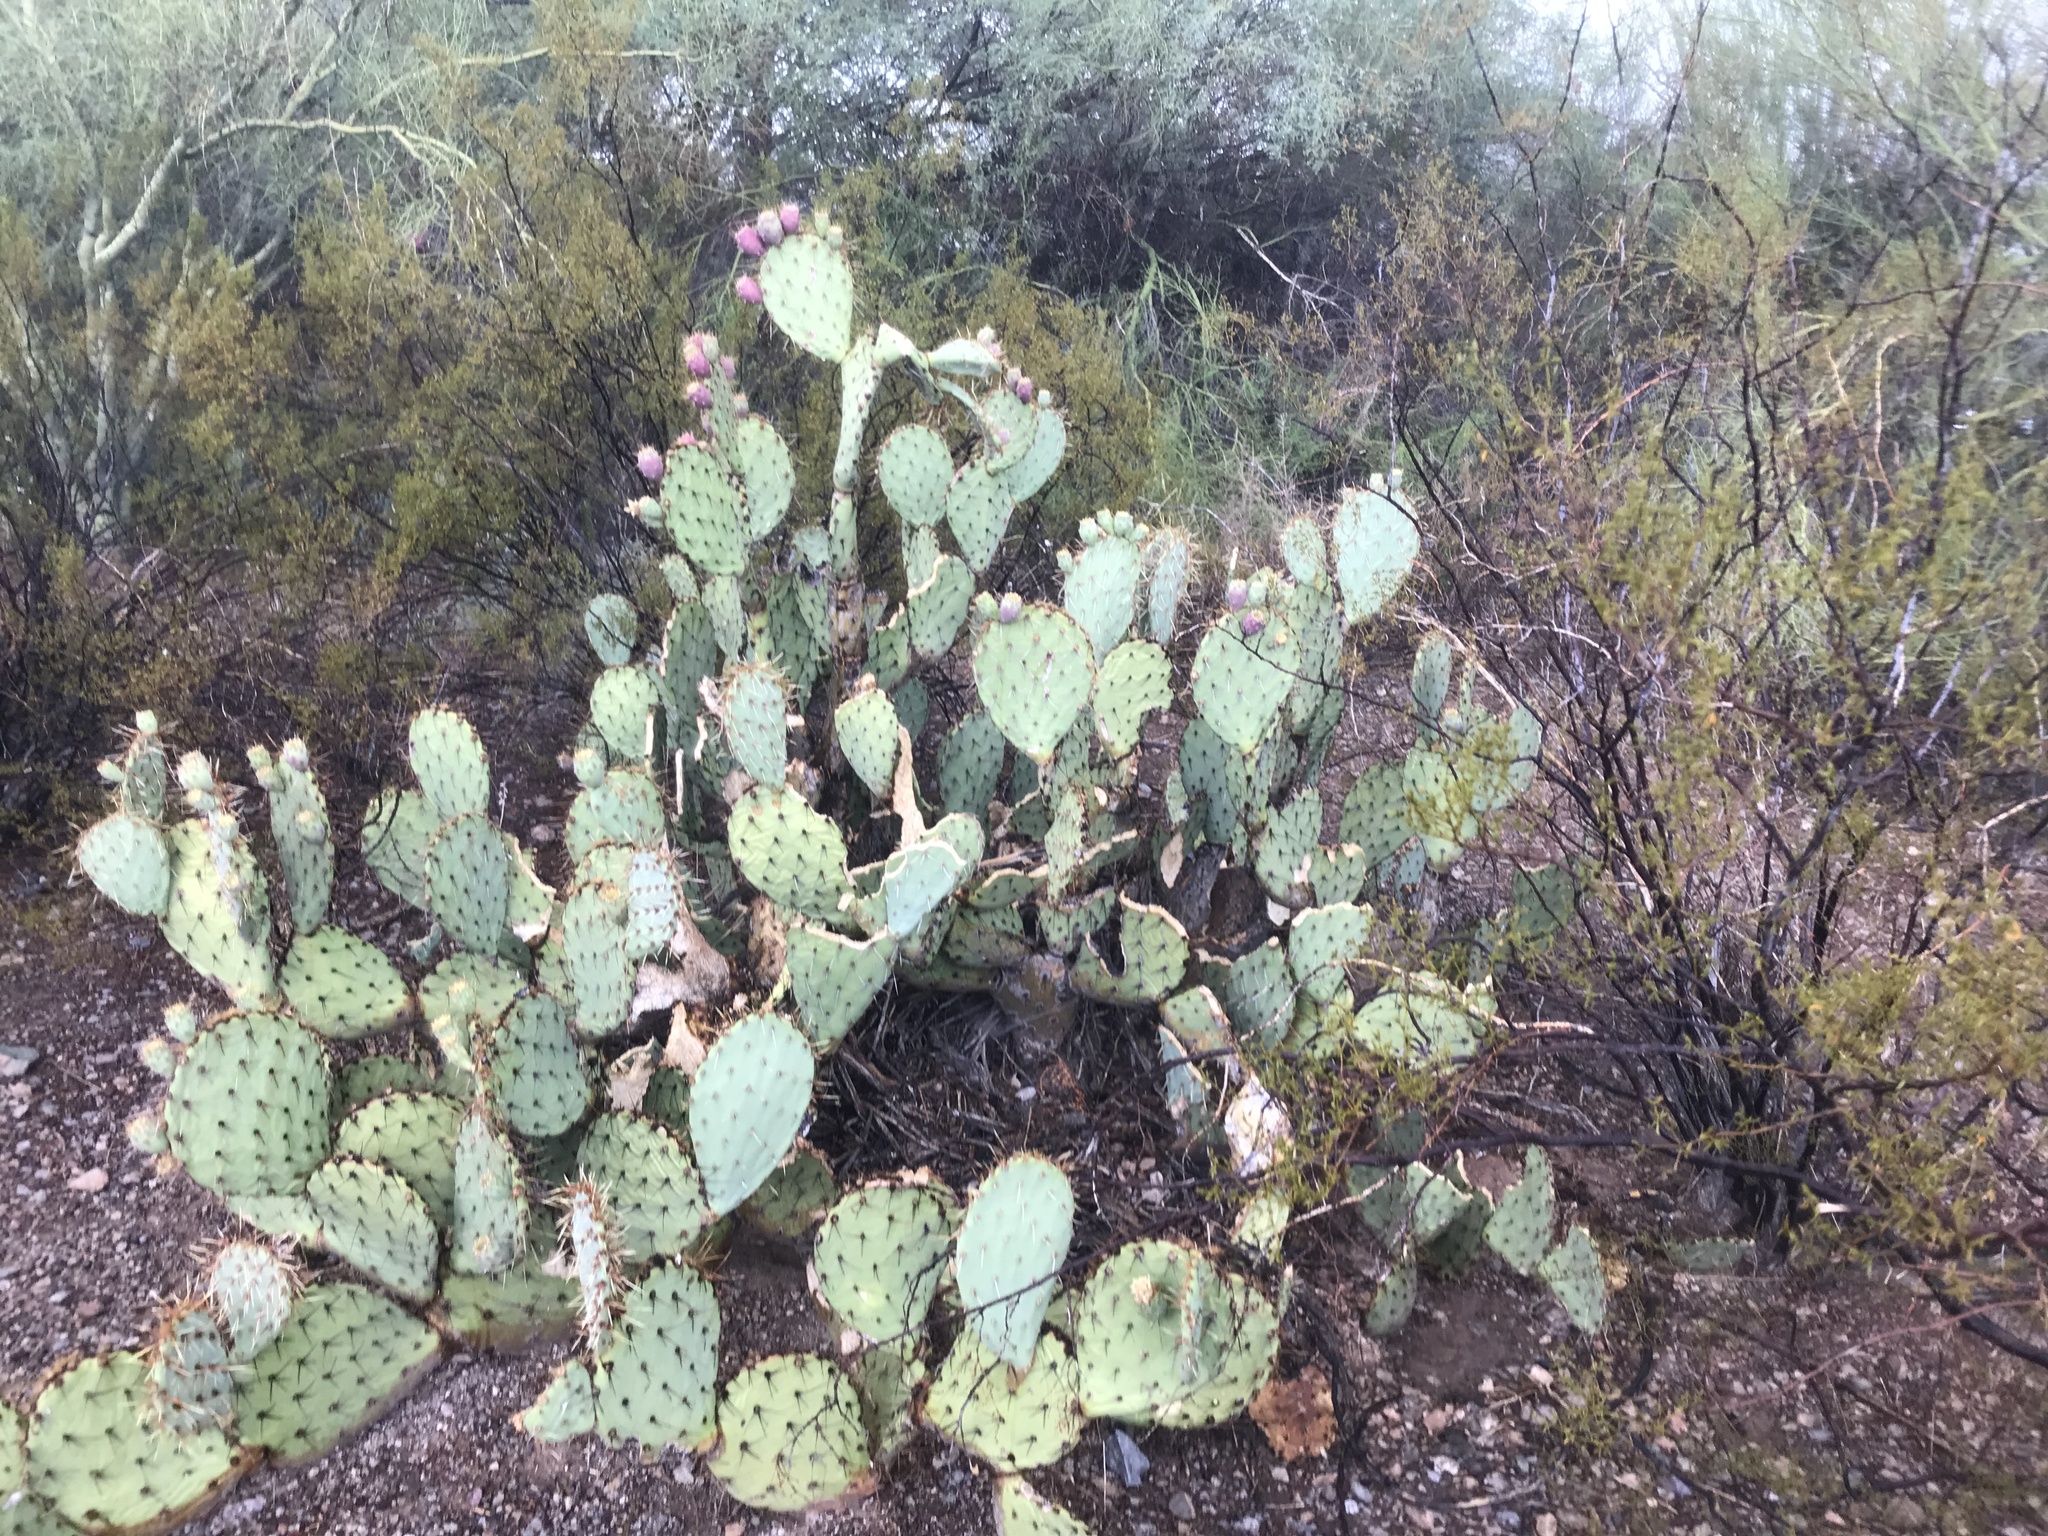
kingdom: Plantae
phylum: Tracheophyta
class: Magnoliopsida
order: Caryophyllales
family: Cactaceae
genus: Opuntia
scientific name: Opuntia engelmannii
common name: Cactus-apple
